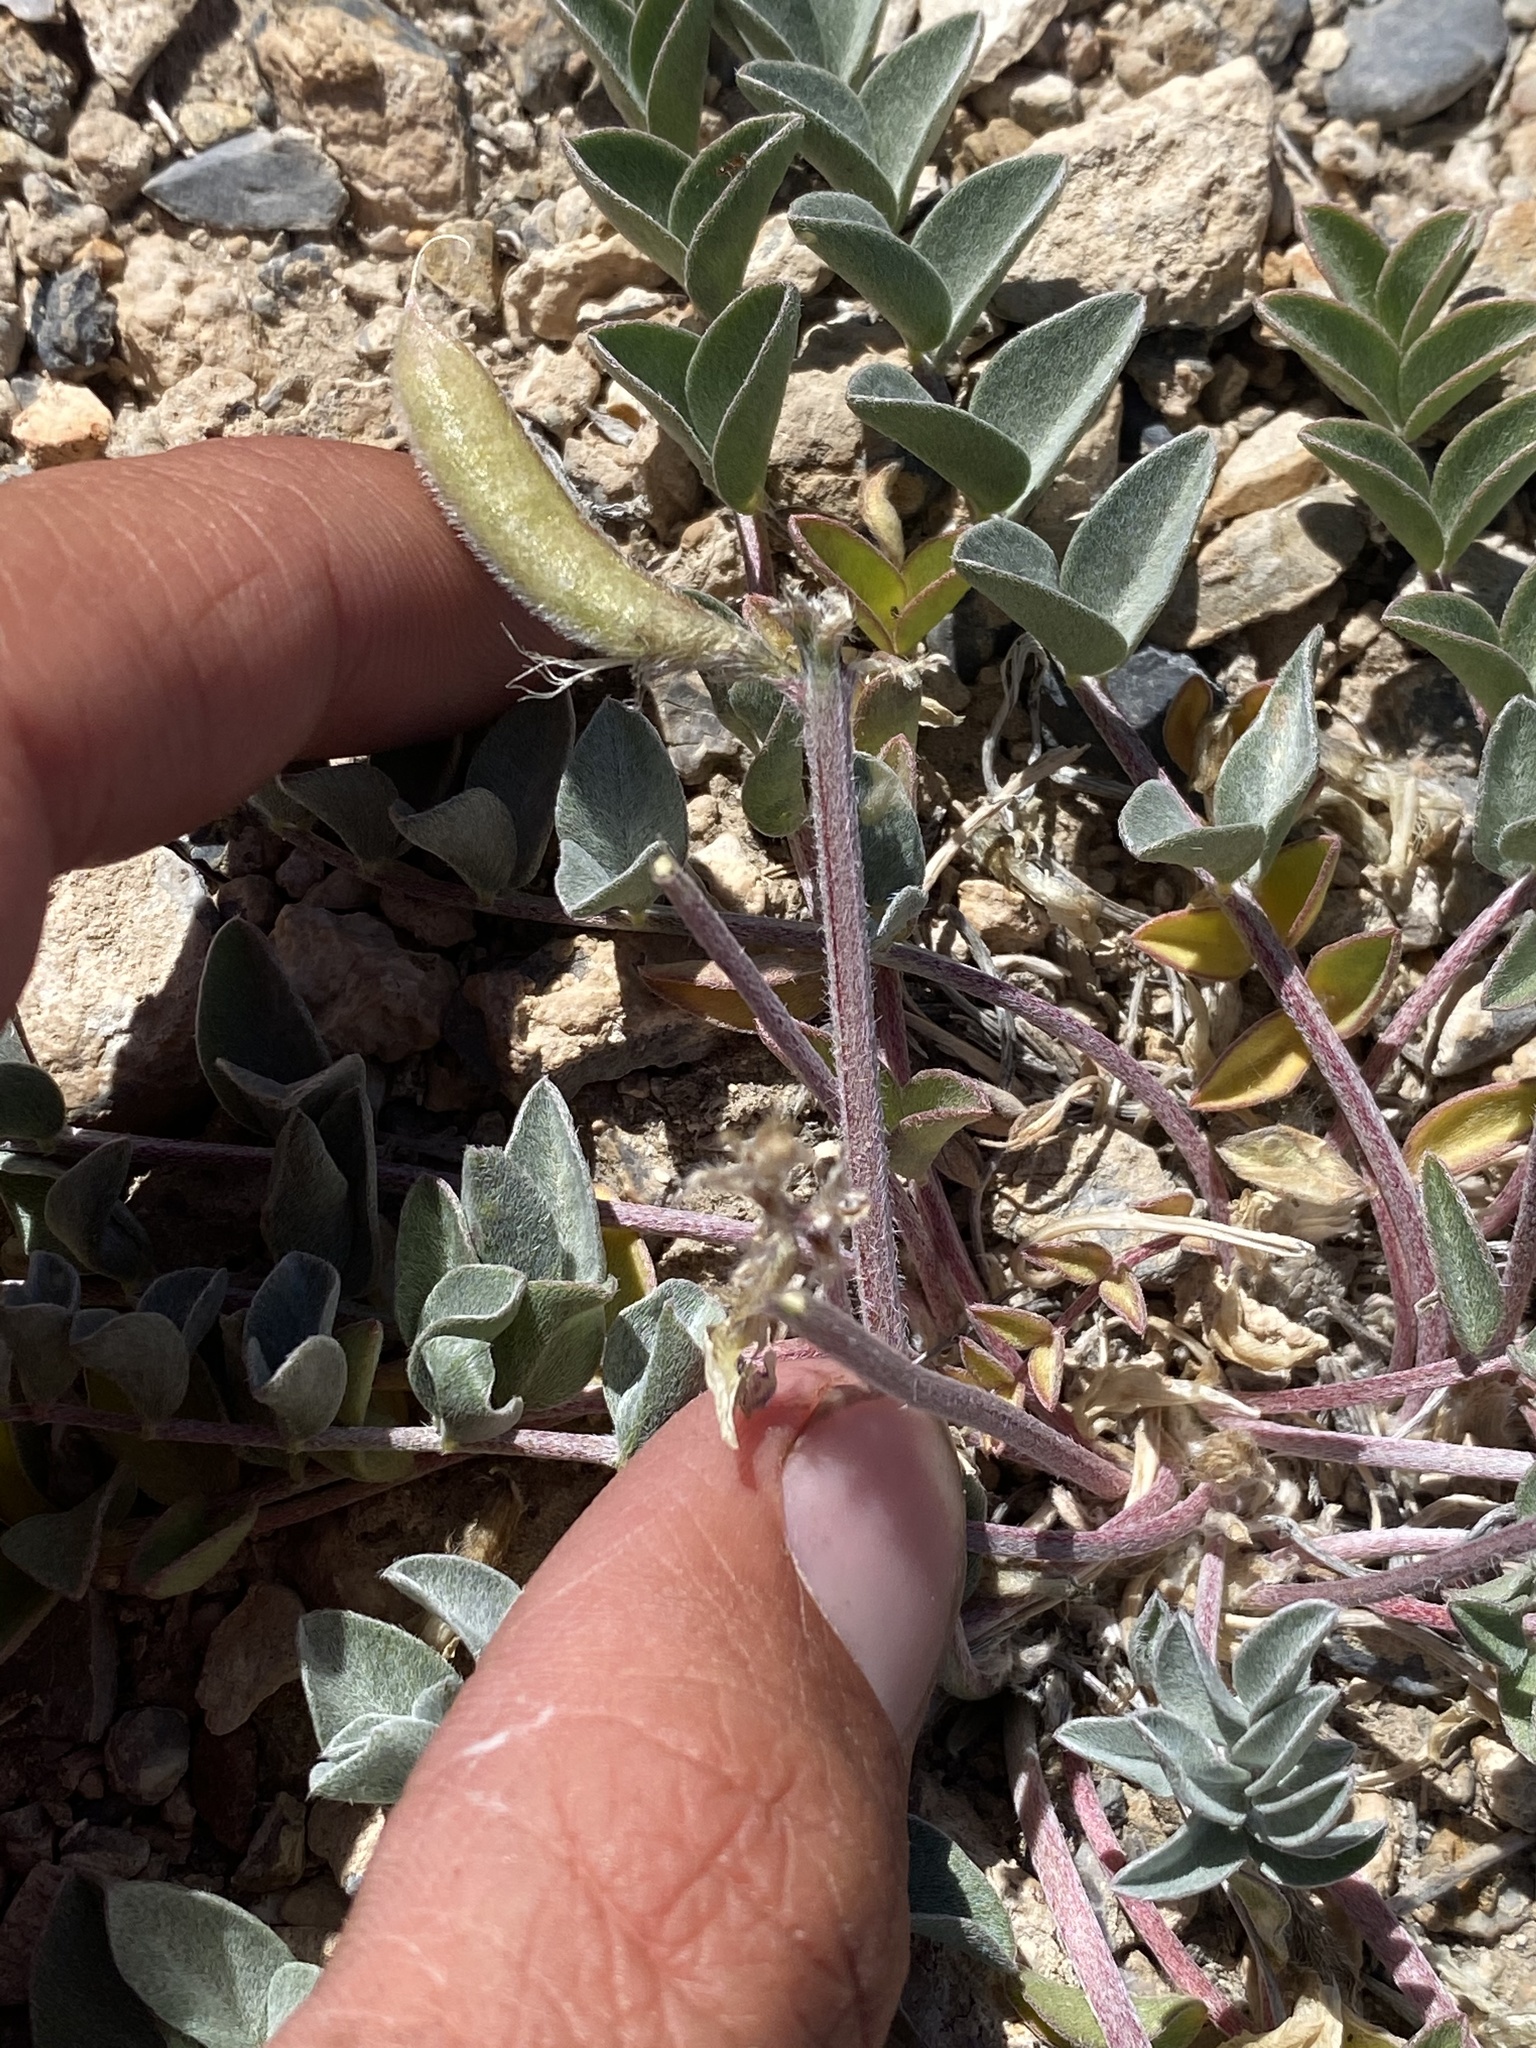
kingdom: Plantae
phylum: Tracheophyta
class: Magnoliopsida
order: Fabales
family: Fabaceae
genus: Astragalus
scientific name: Astragalus minthorniae
